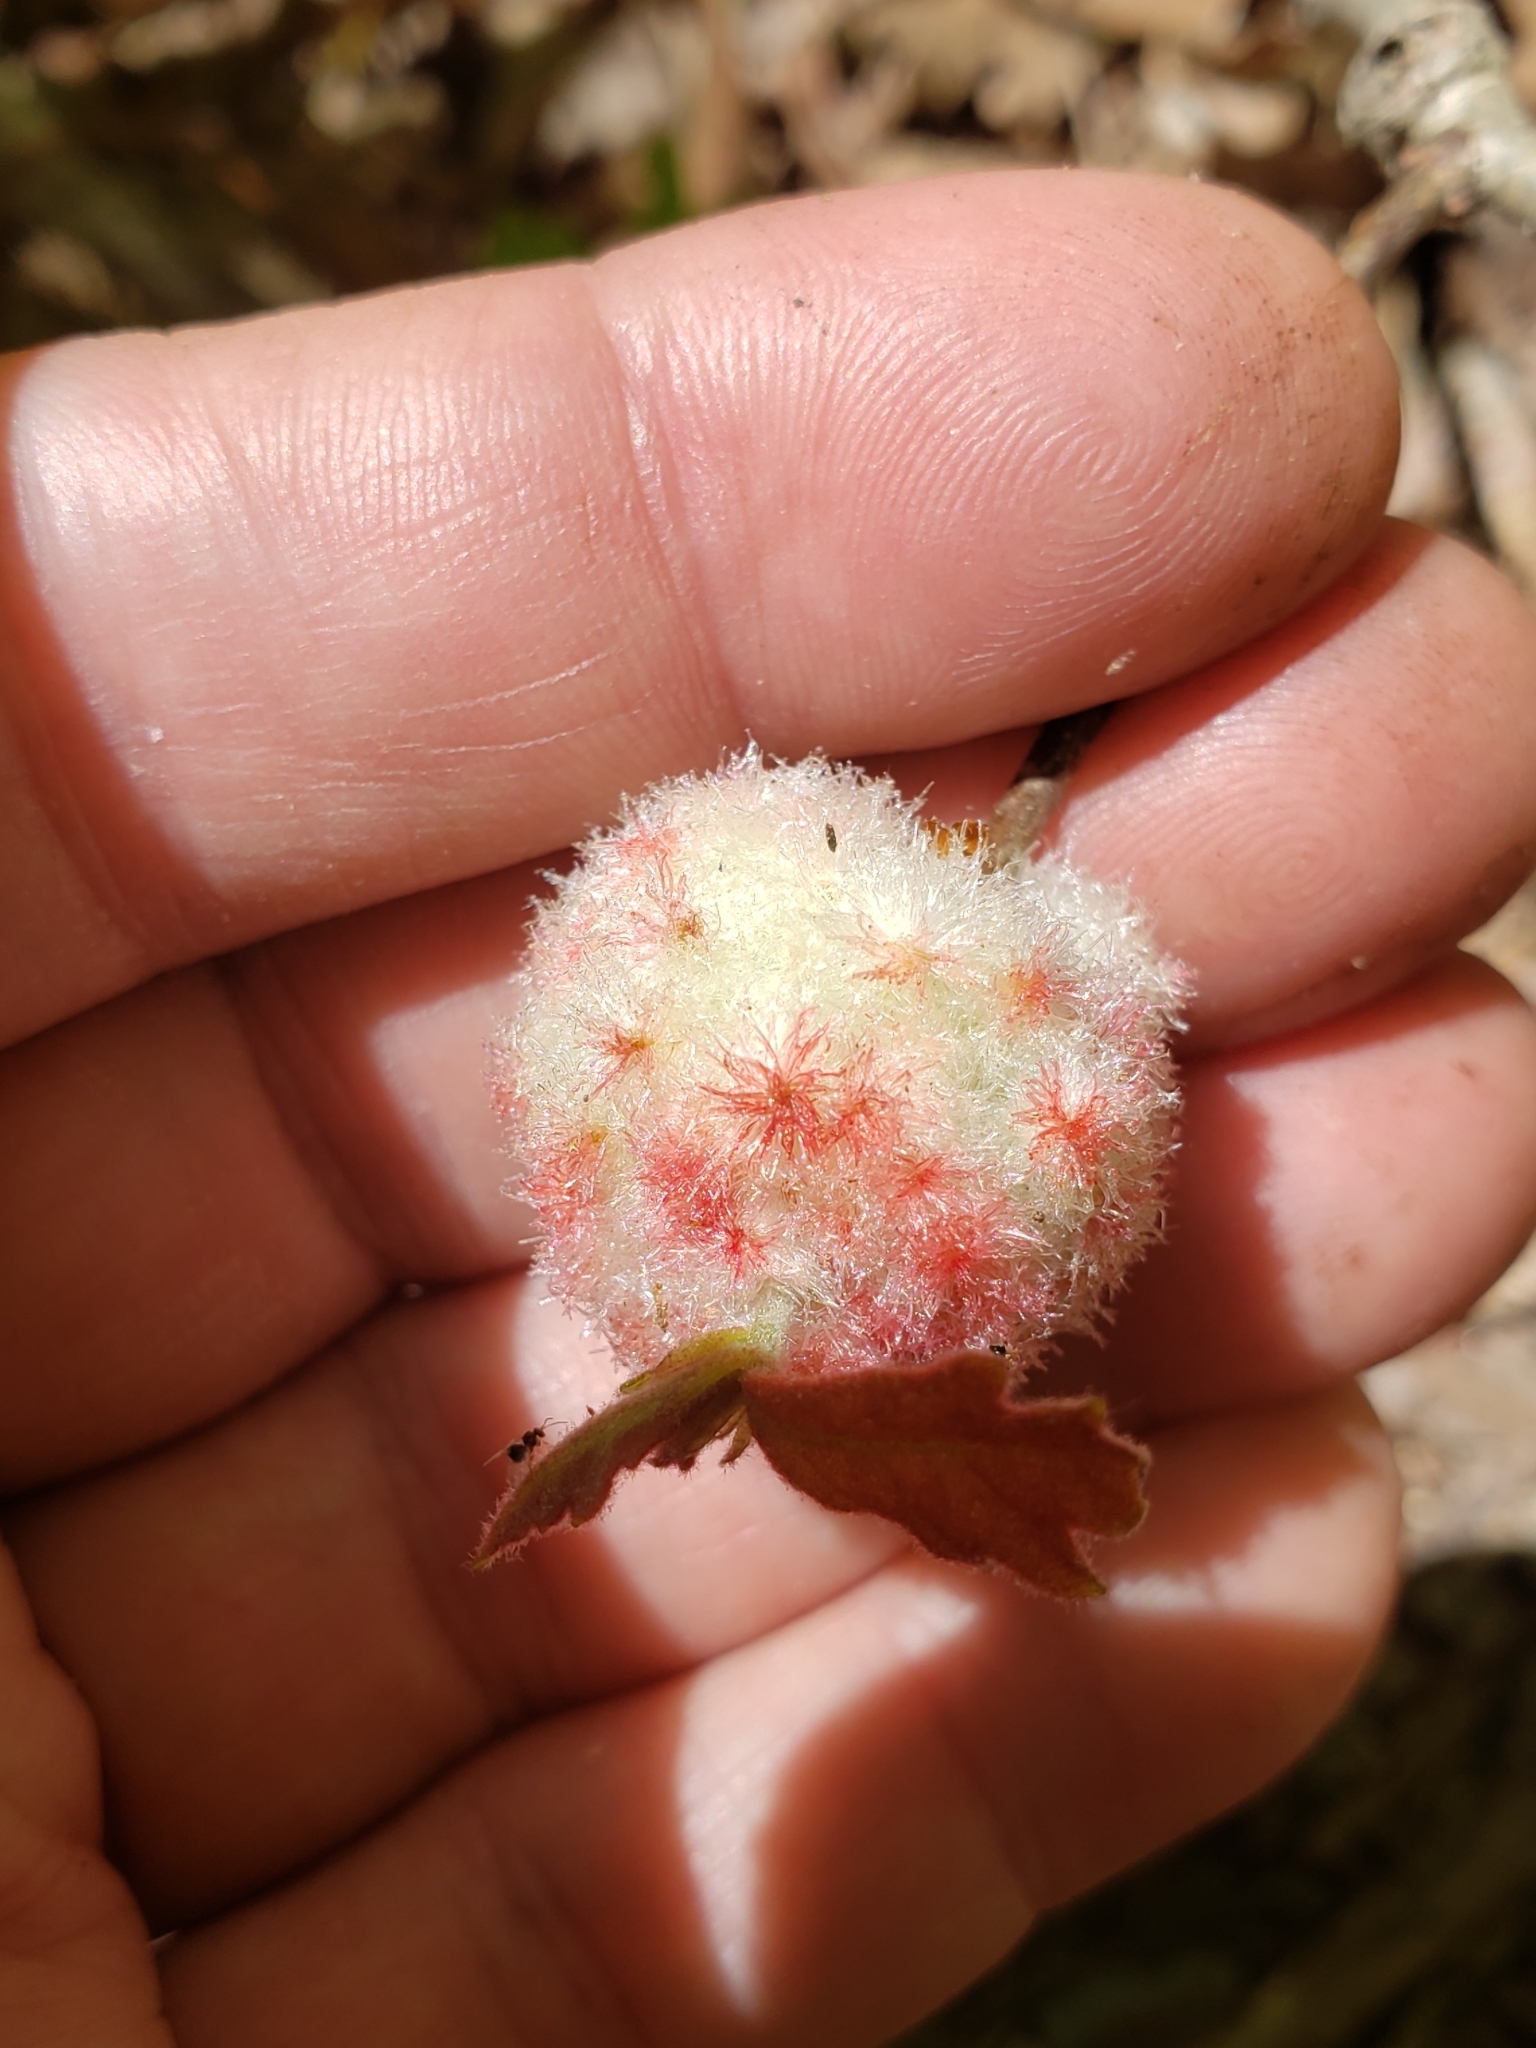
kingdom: Animalia
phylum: Arthropoda
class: Insecta
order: Hymenoptera
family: Cynipidae
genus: Callirhytis
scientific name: Callirhytis
